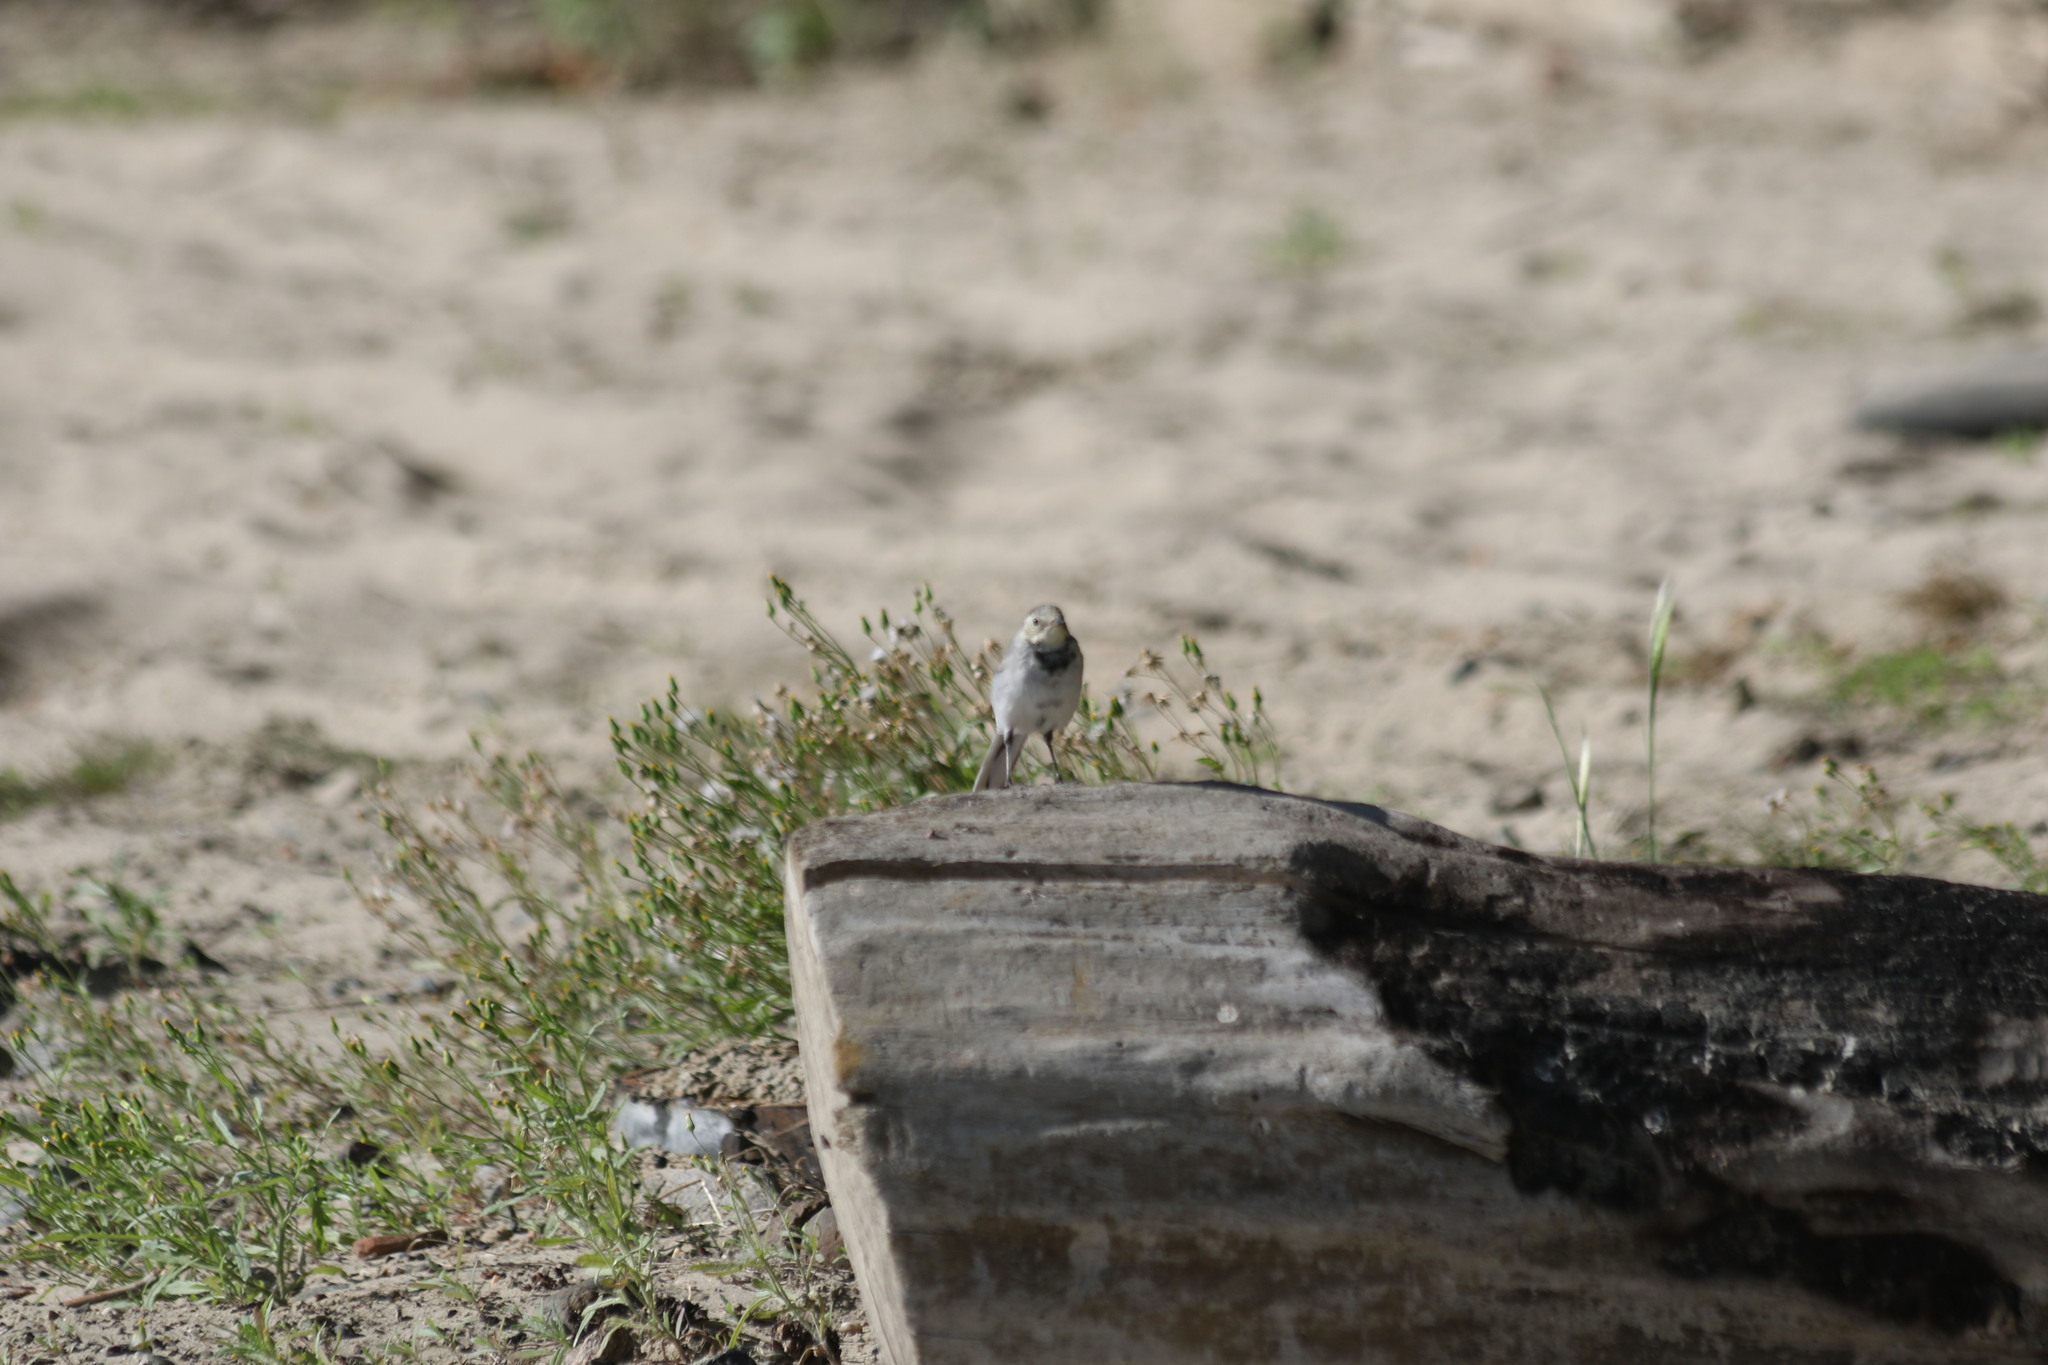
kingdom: Animalia
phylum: Chordata
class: Aves
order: Passeriformes
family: Motacillidae
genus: Motacilla
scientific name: Motacilla alba
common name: White wagtail
